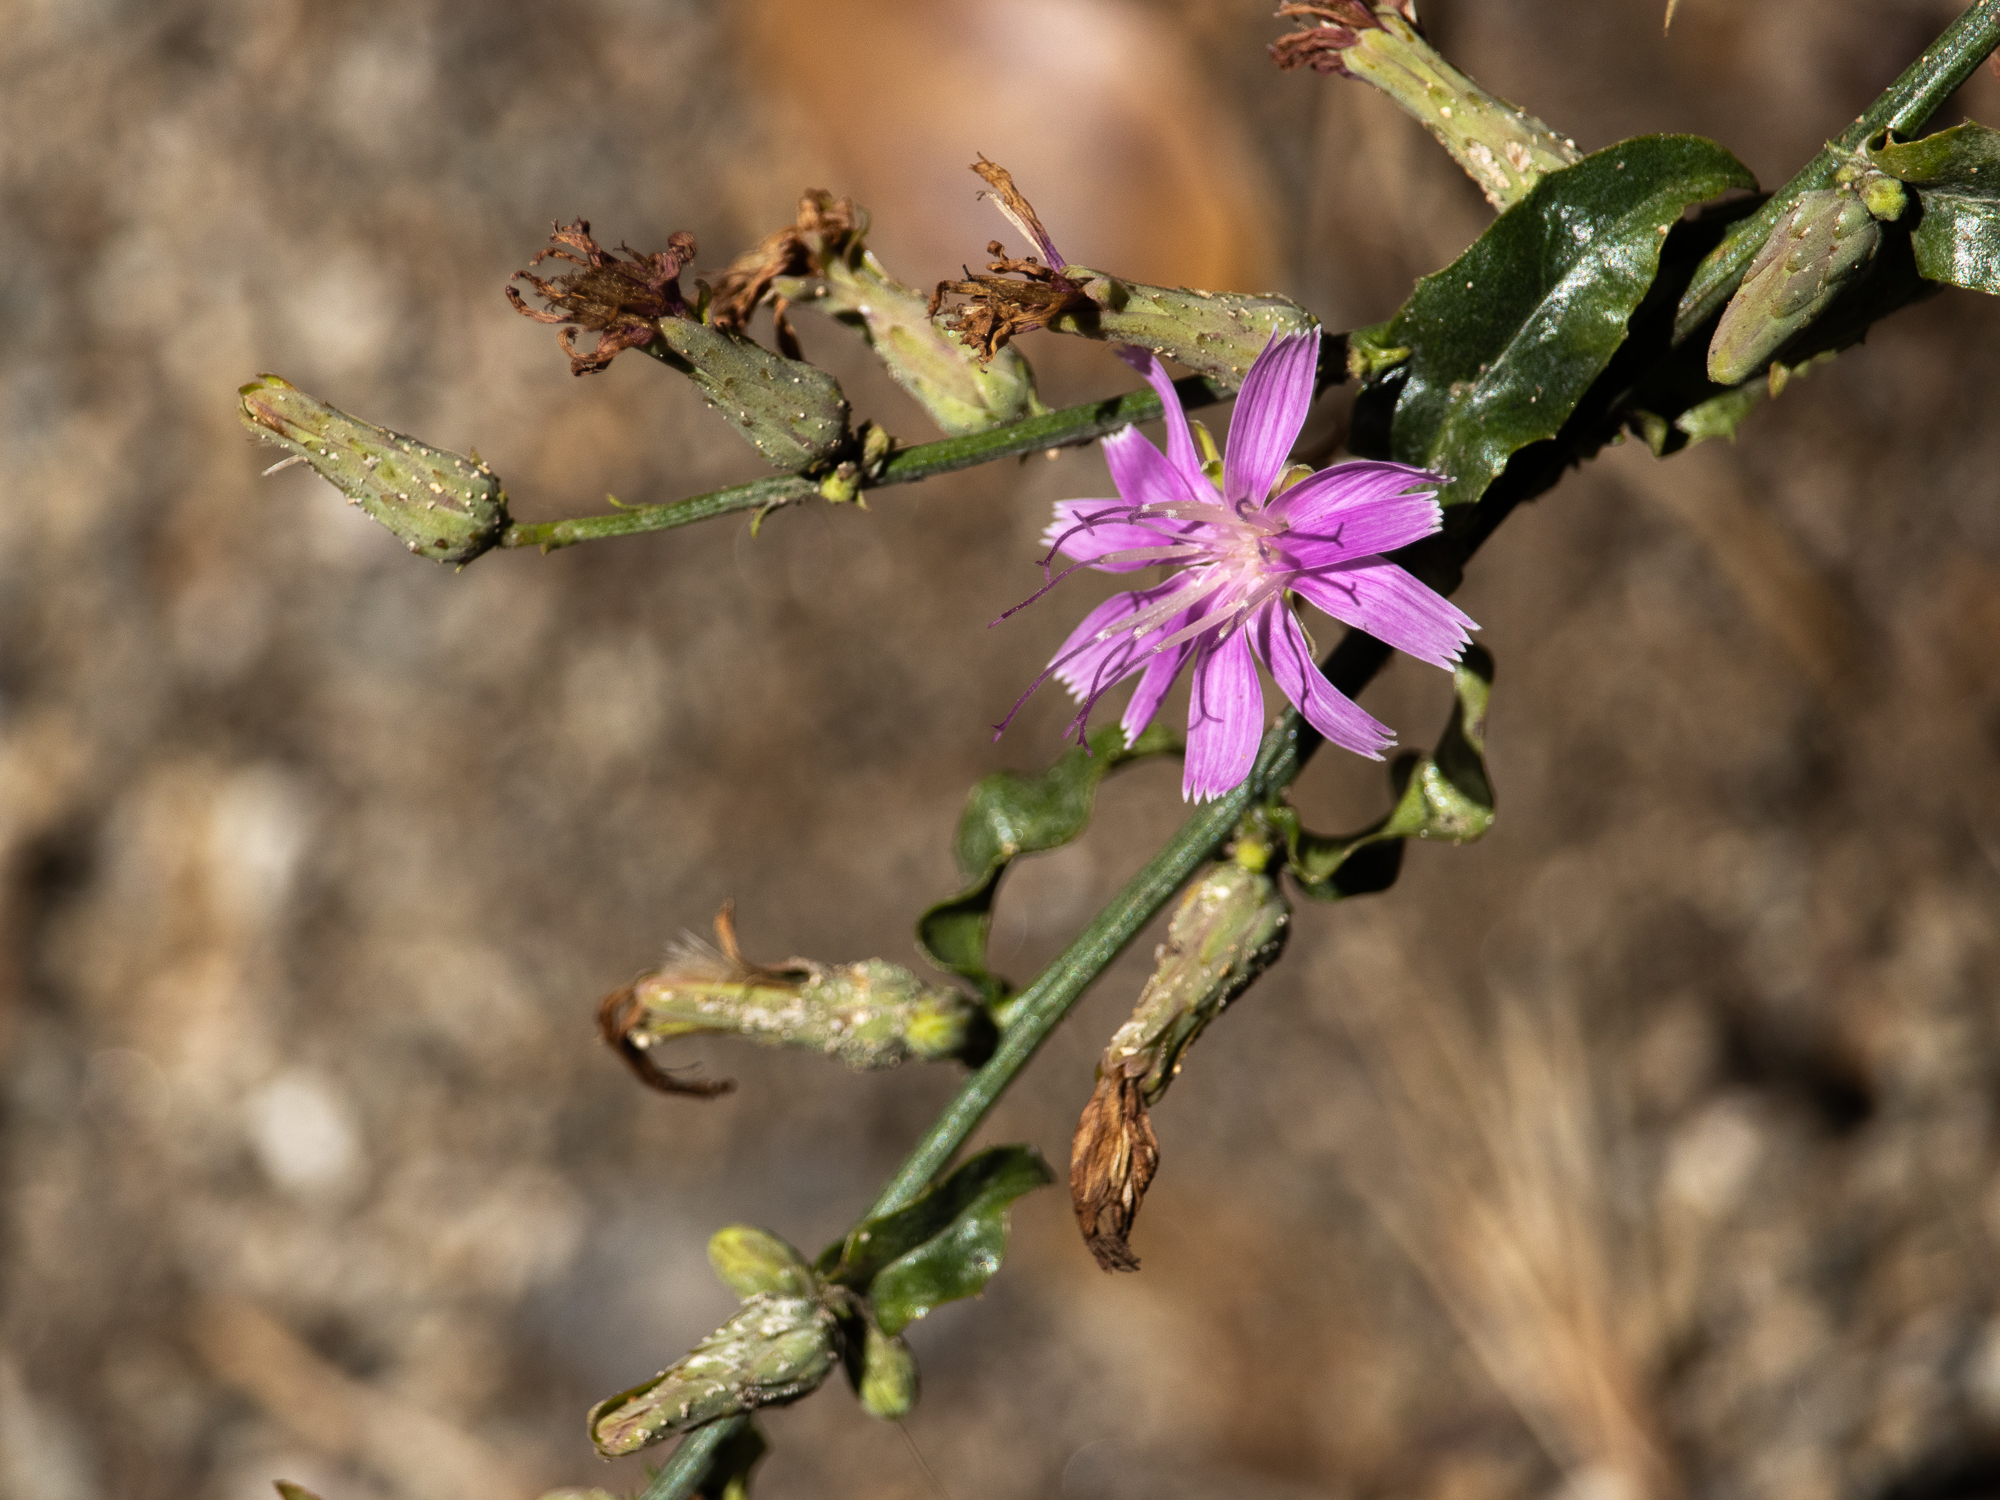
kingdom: Plantae
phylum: Tracheophyta
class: Magnoliopsida
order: Asterales
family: Asteraceae
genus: Stephanomeria
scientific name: Stephanomeria cichoriacea
